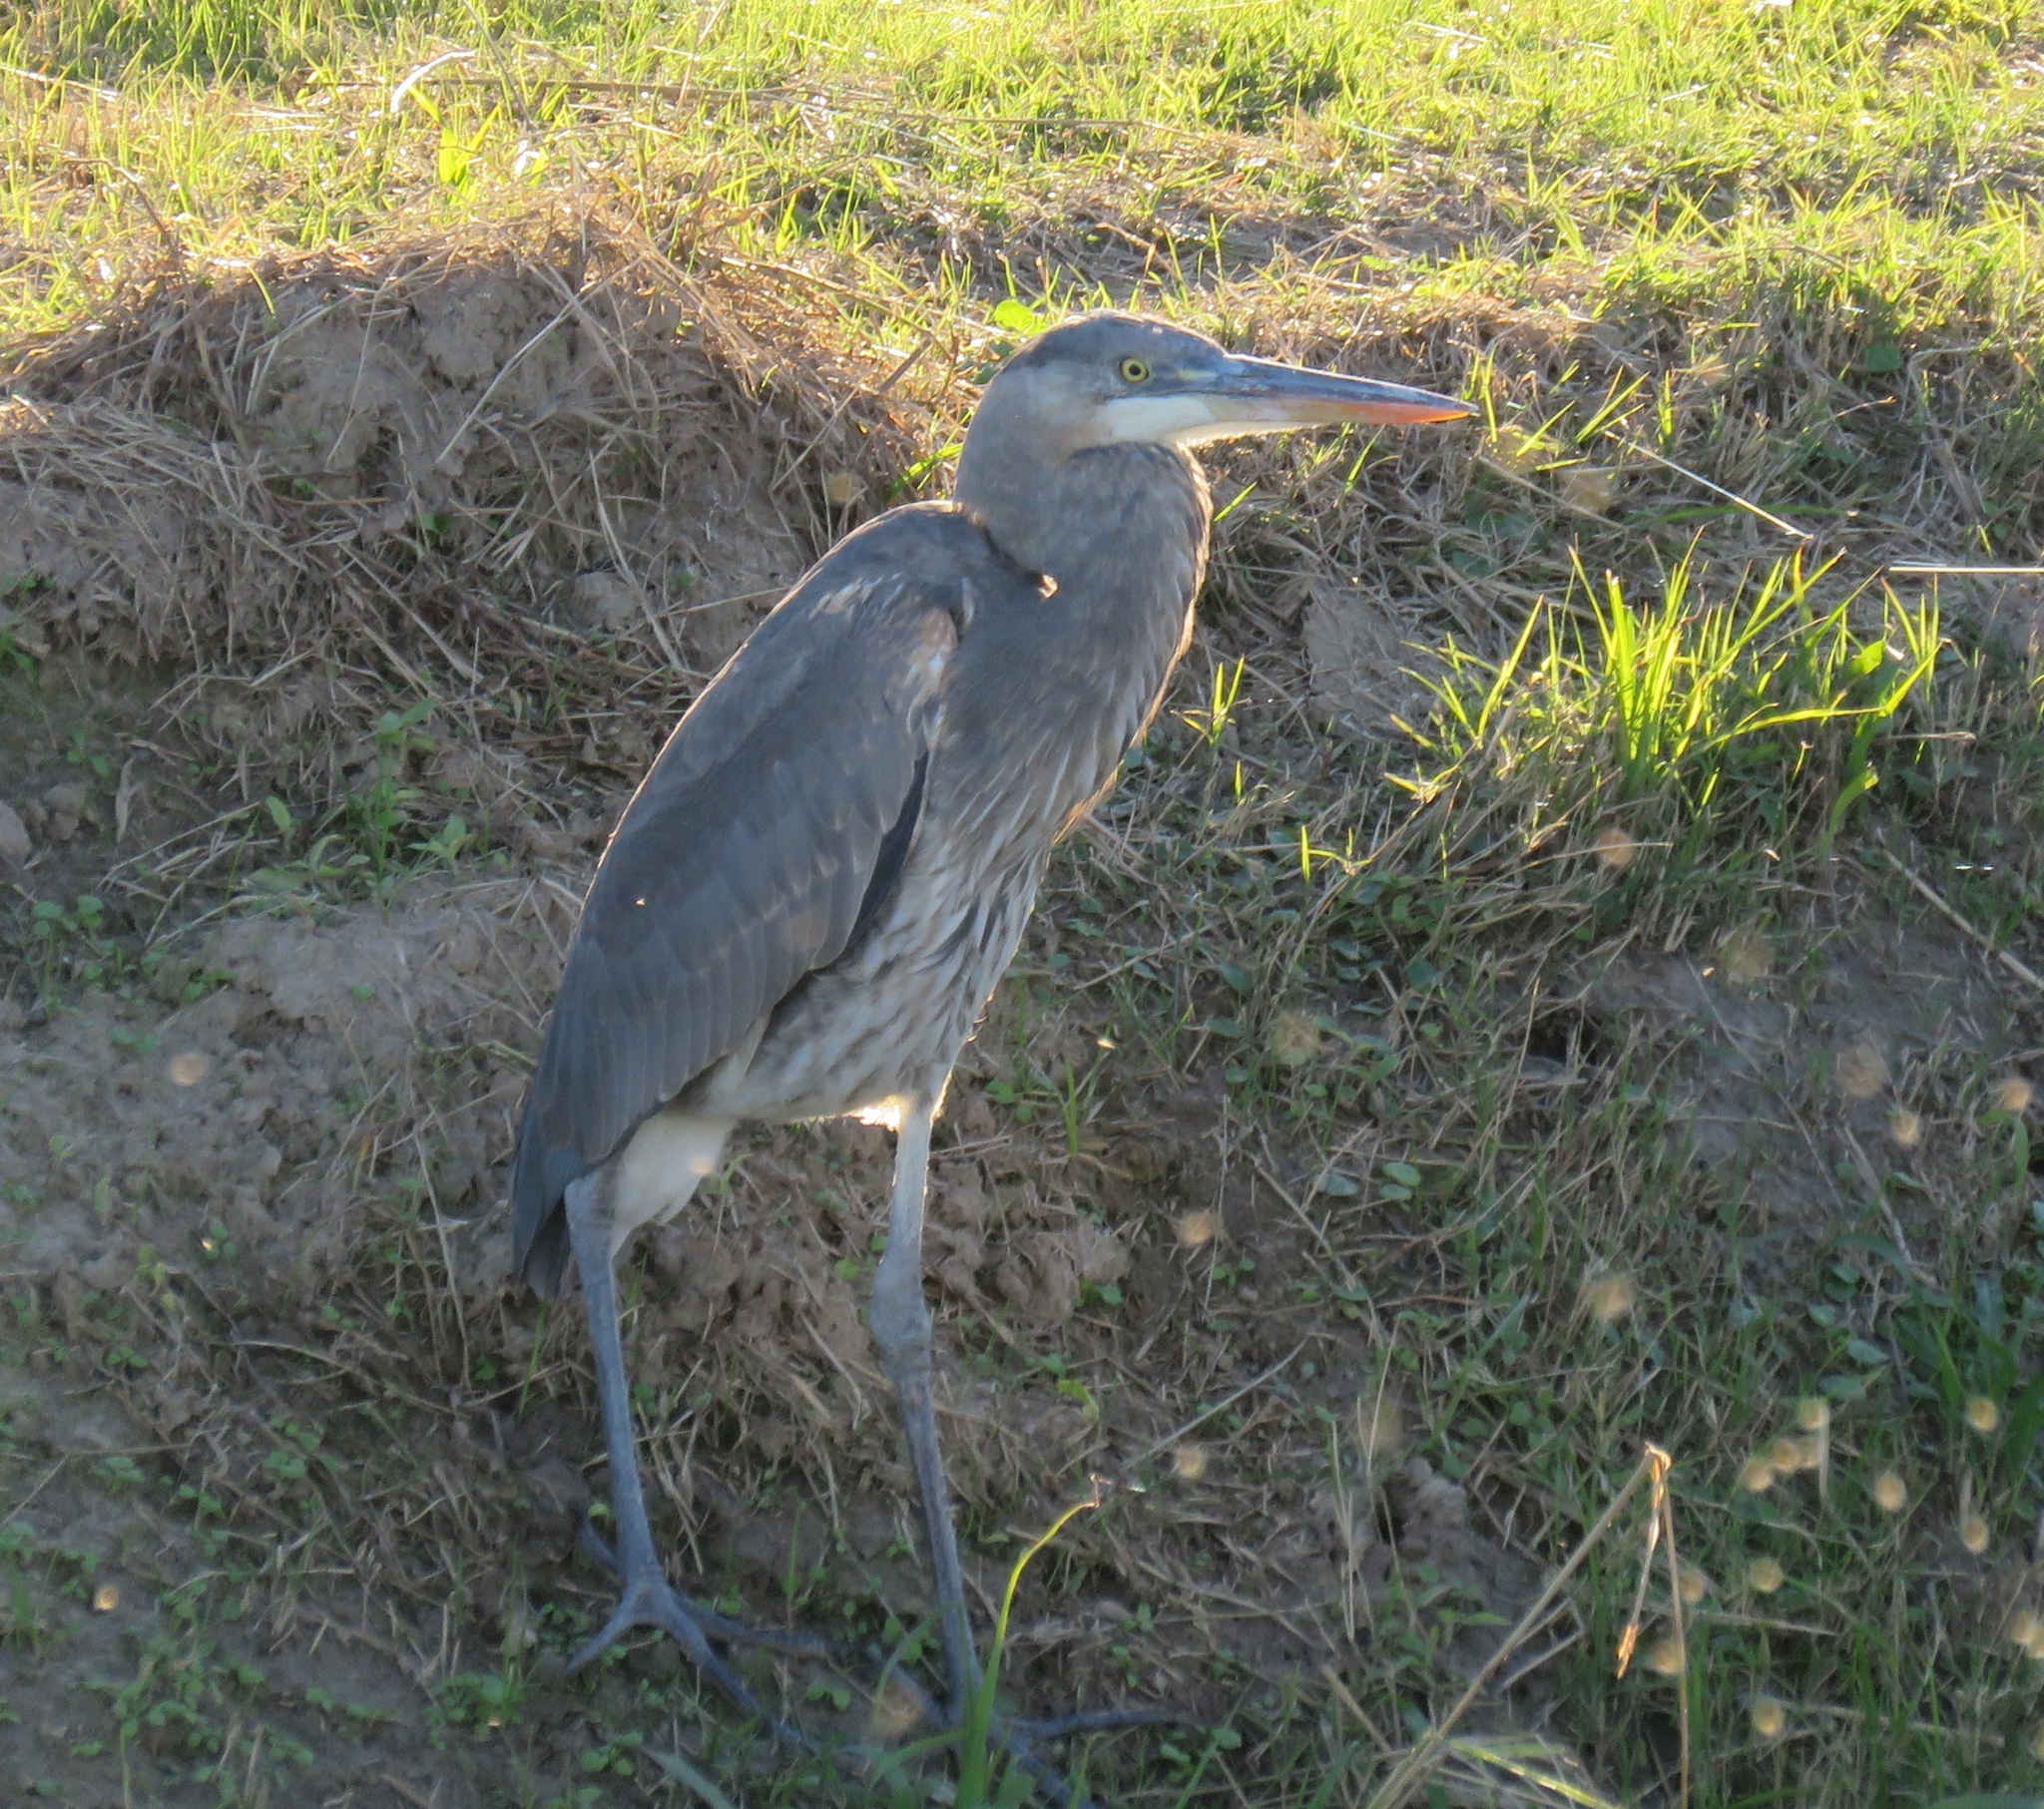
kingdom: Animalia
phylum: Chordata
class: Aves
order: Pelecaniformes
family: Ardeidae
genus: Ardea
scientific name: Ardea herodias
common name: Great blue heron
